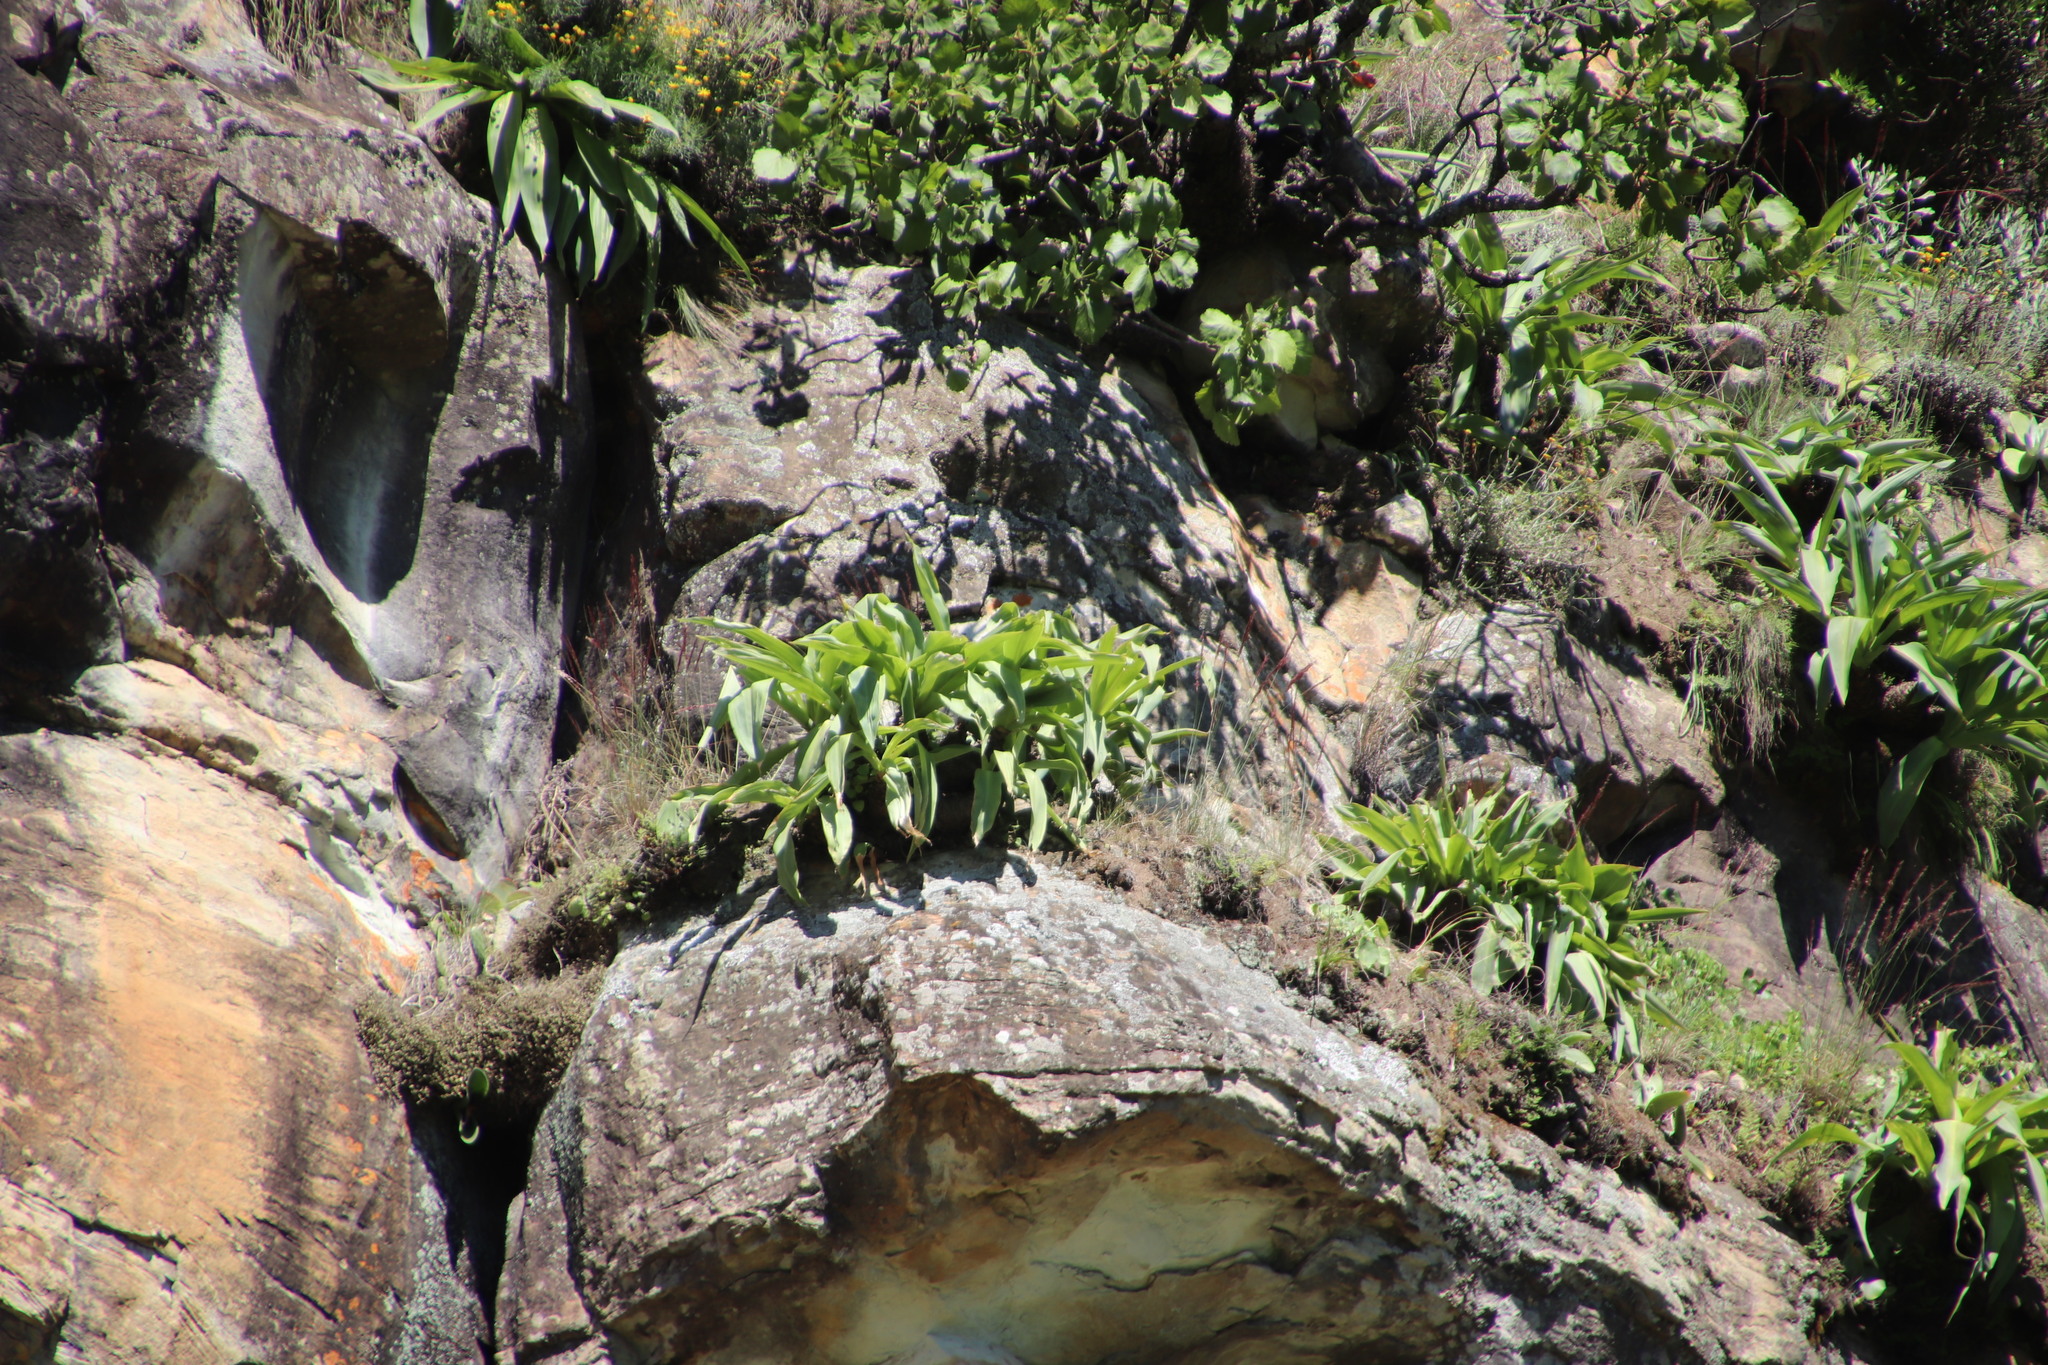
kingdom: Plantae
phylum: Tracheophyta
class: Liliopsida
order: Asparagales
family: Asparagaceae
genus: Merwilla
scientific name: Merwilla plumbea
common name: Blue-squill
